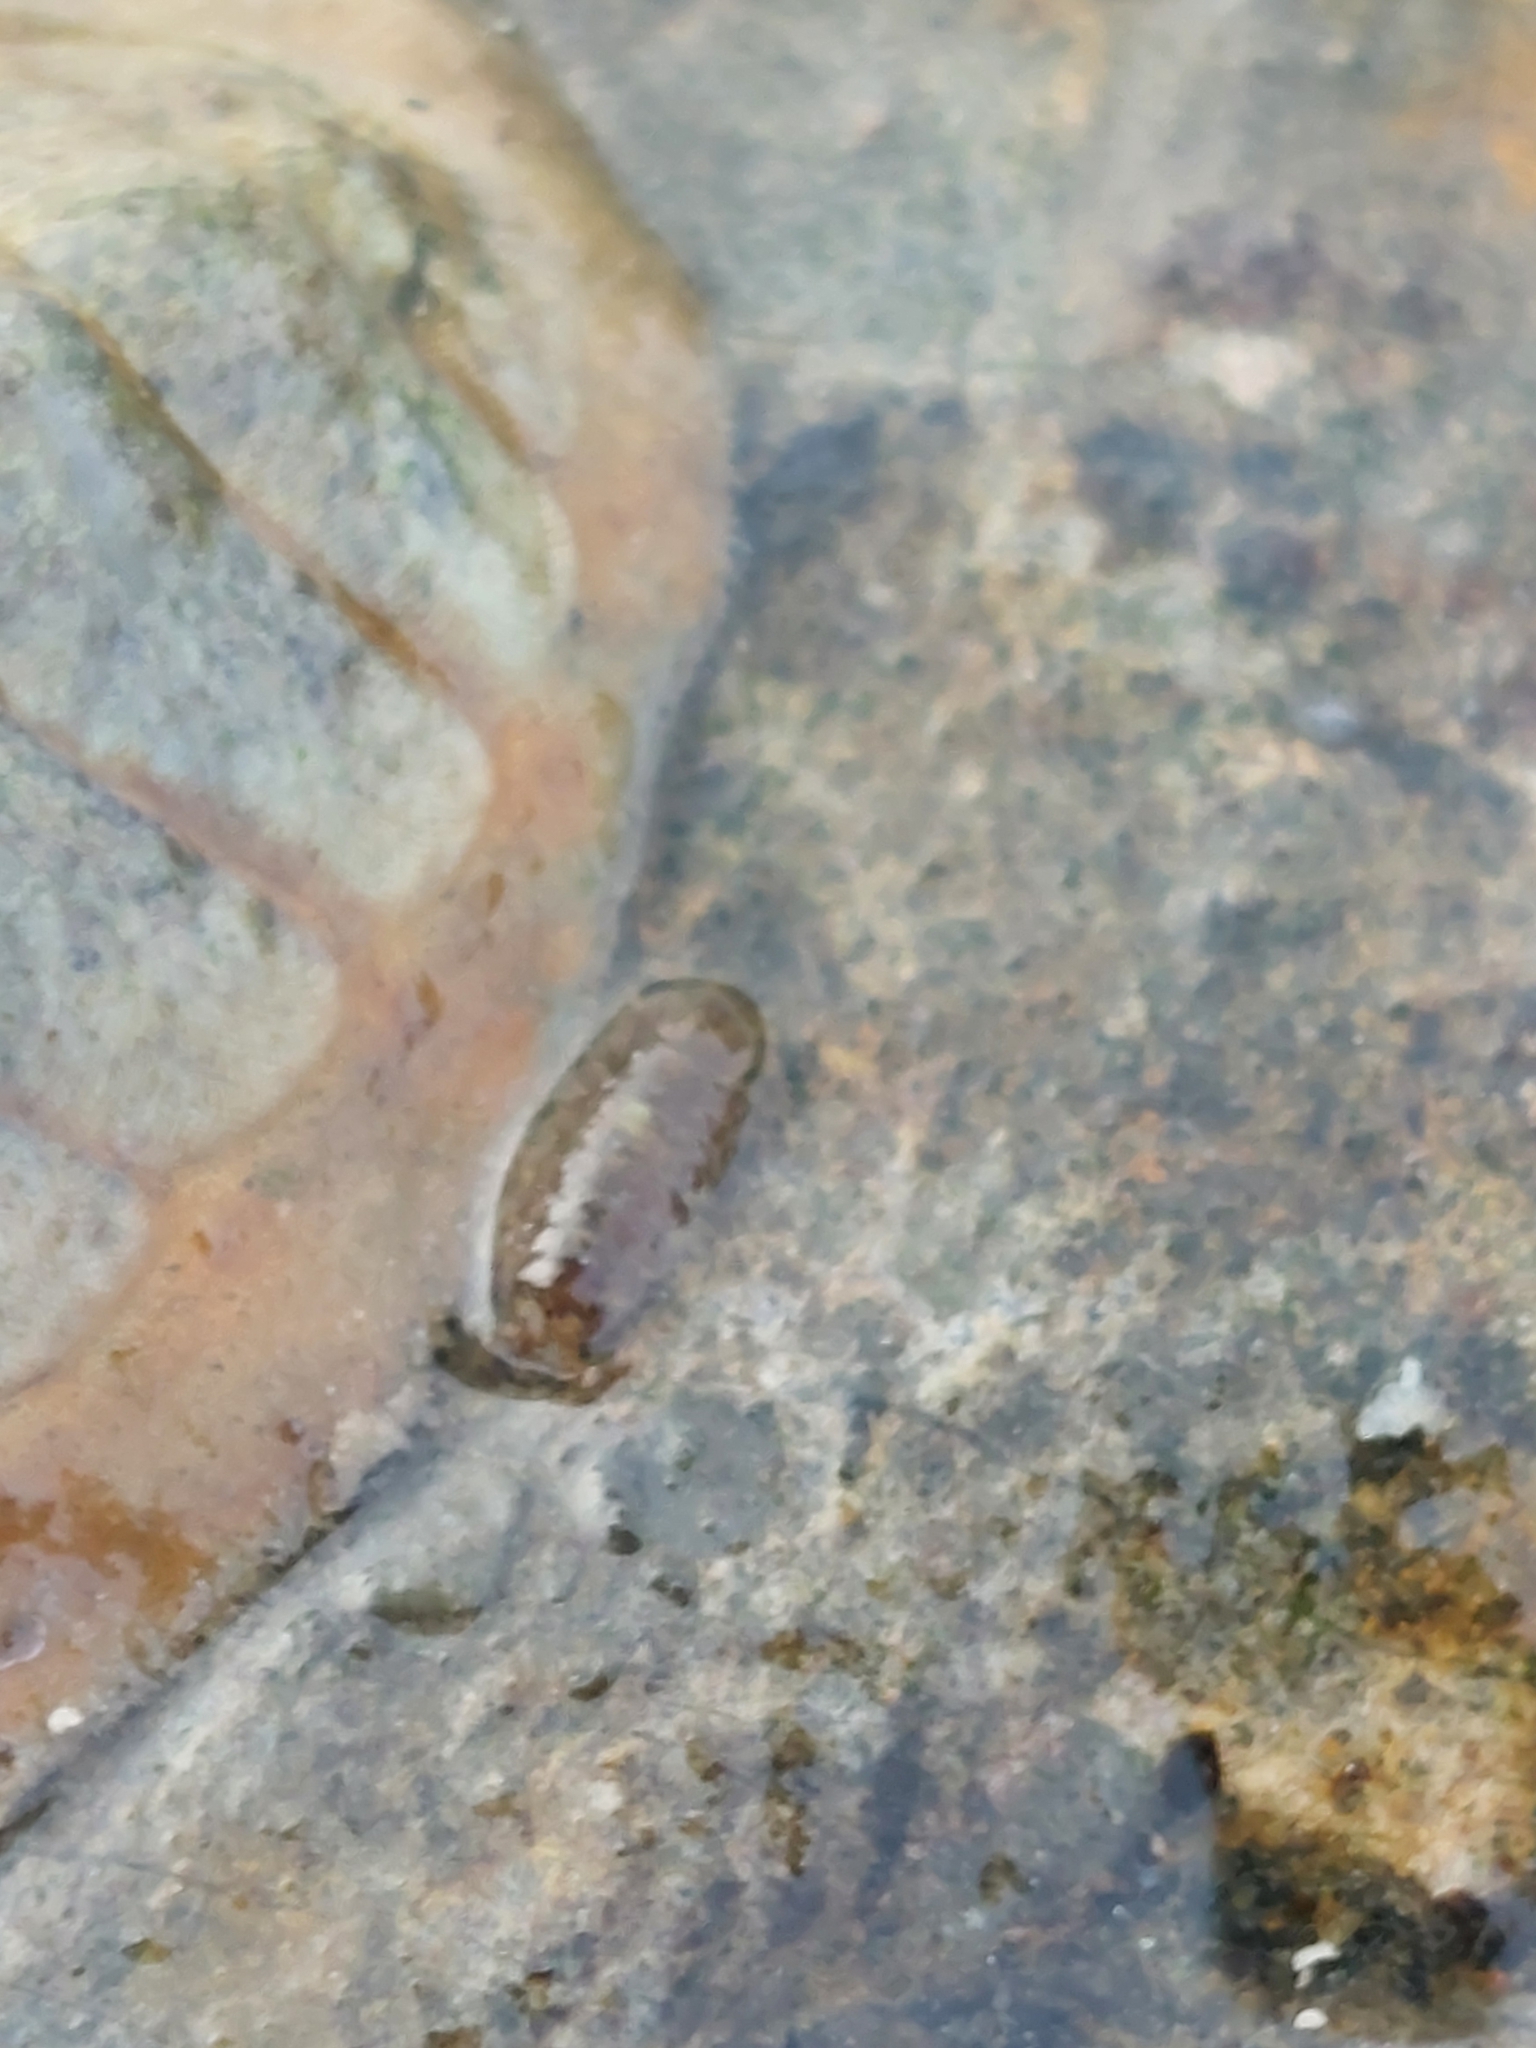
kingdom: Animalia
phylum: Arthropoda
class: Malacostraca
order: Isopoda
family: Janiridae
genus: Jaera
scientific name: Jaera
